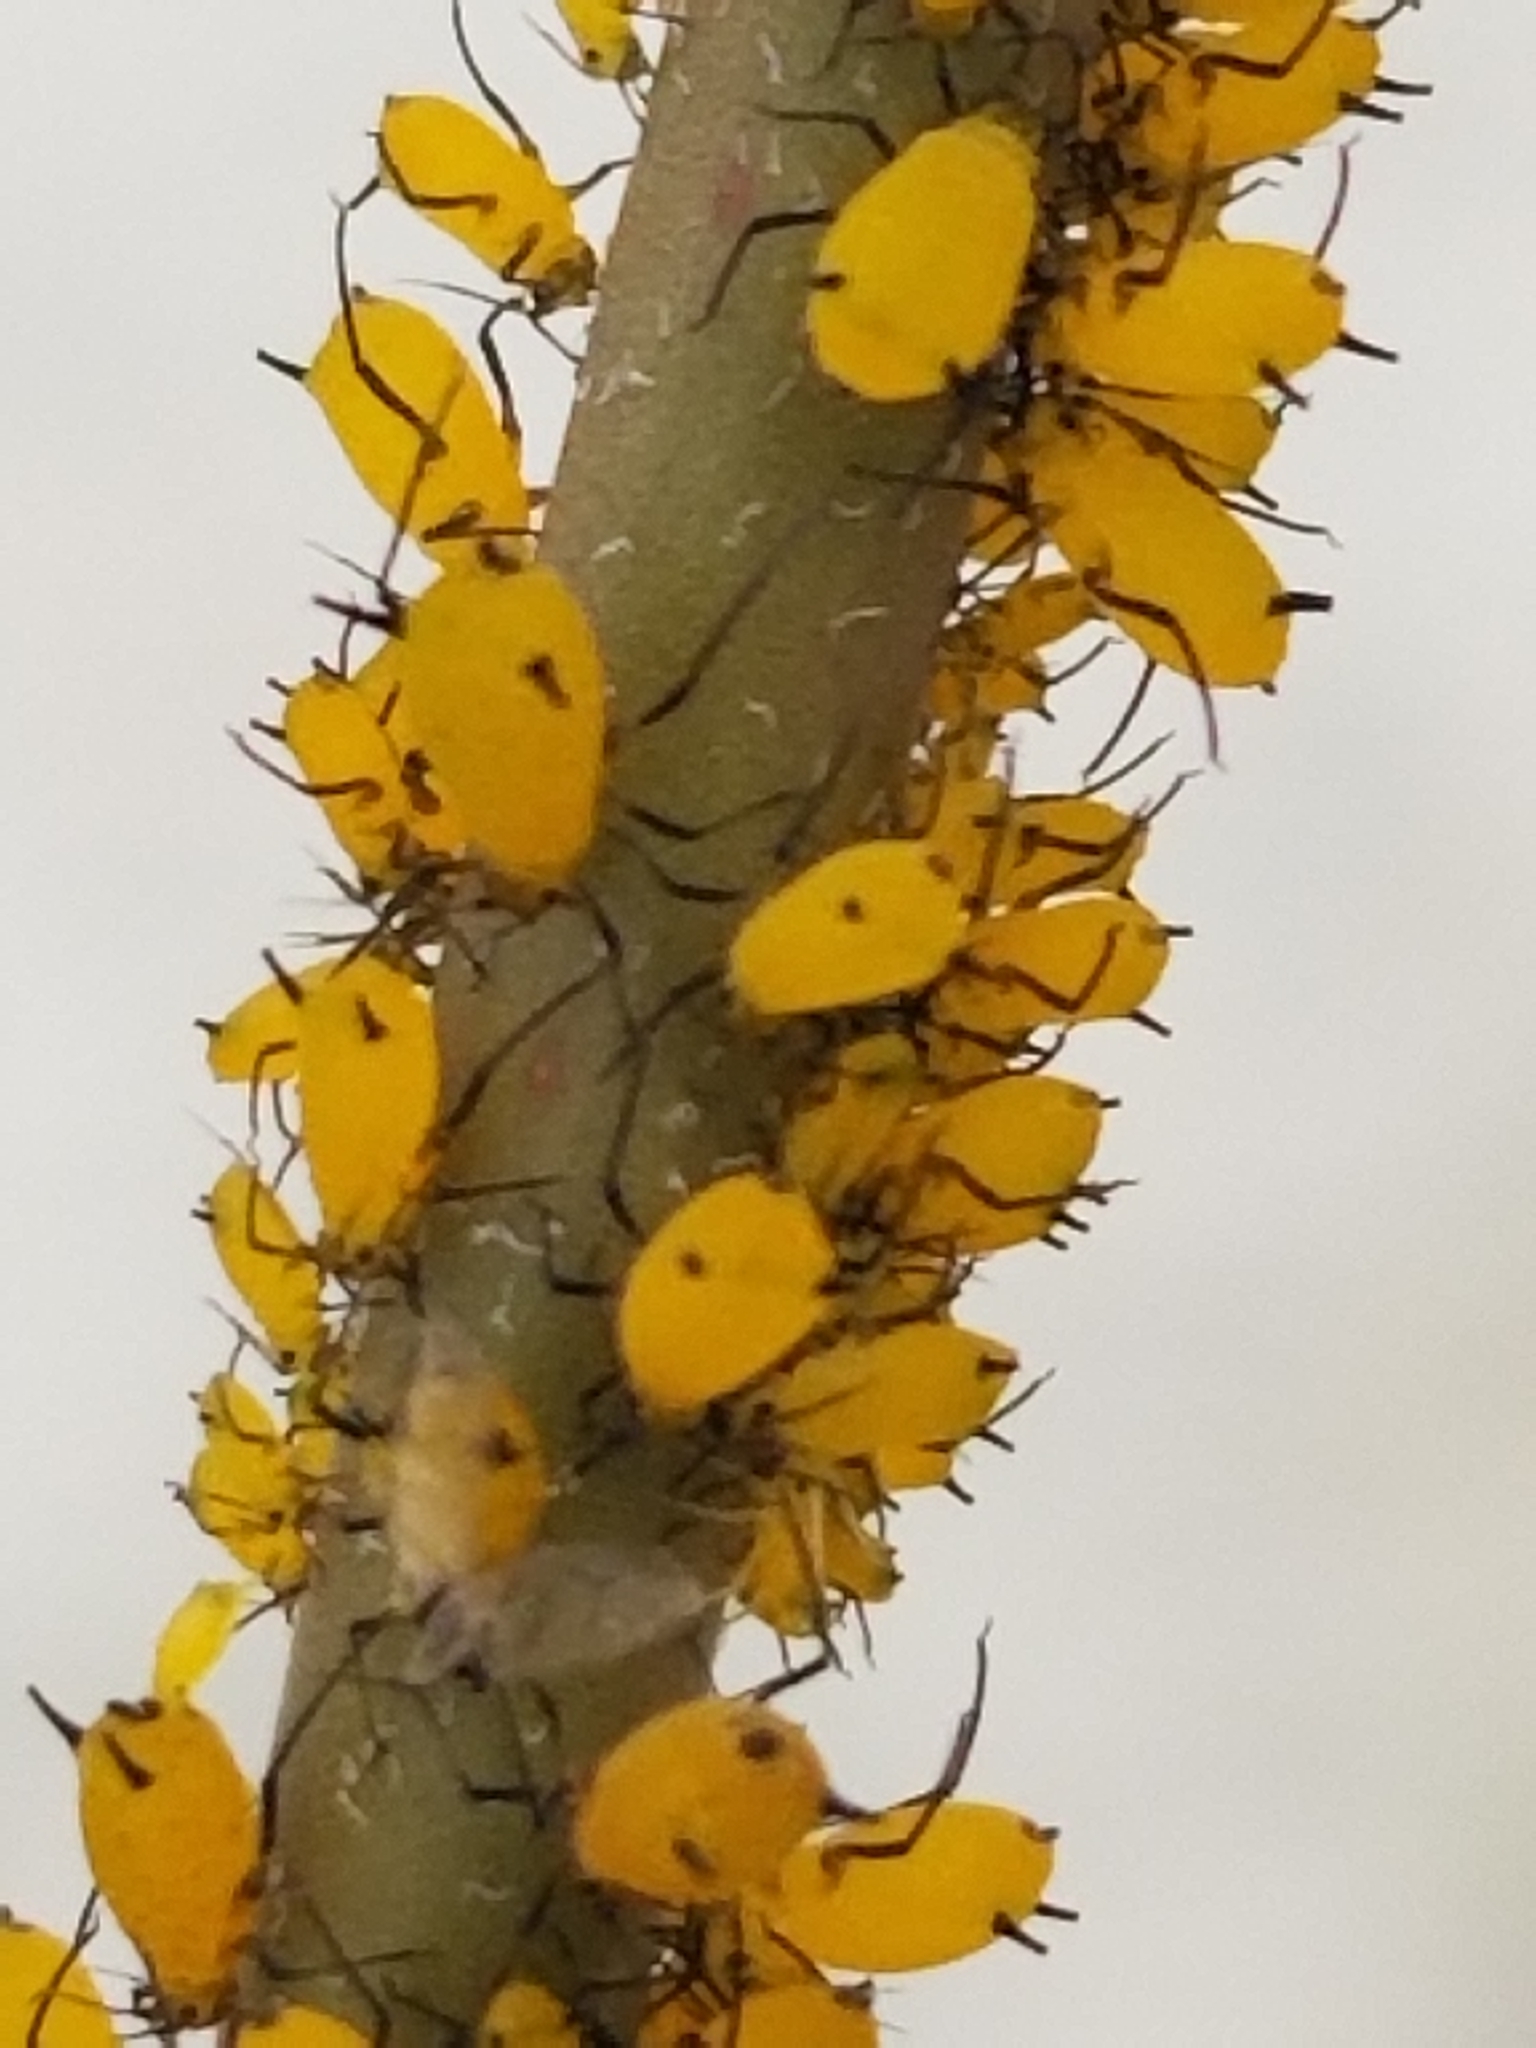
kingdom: Animalia
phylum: Arthropoda
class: Insecta
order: Hemiptera
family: Aphididae
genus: Aphis
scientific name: Aphis nerii
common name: Oleander aphid
